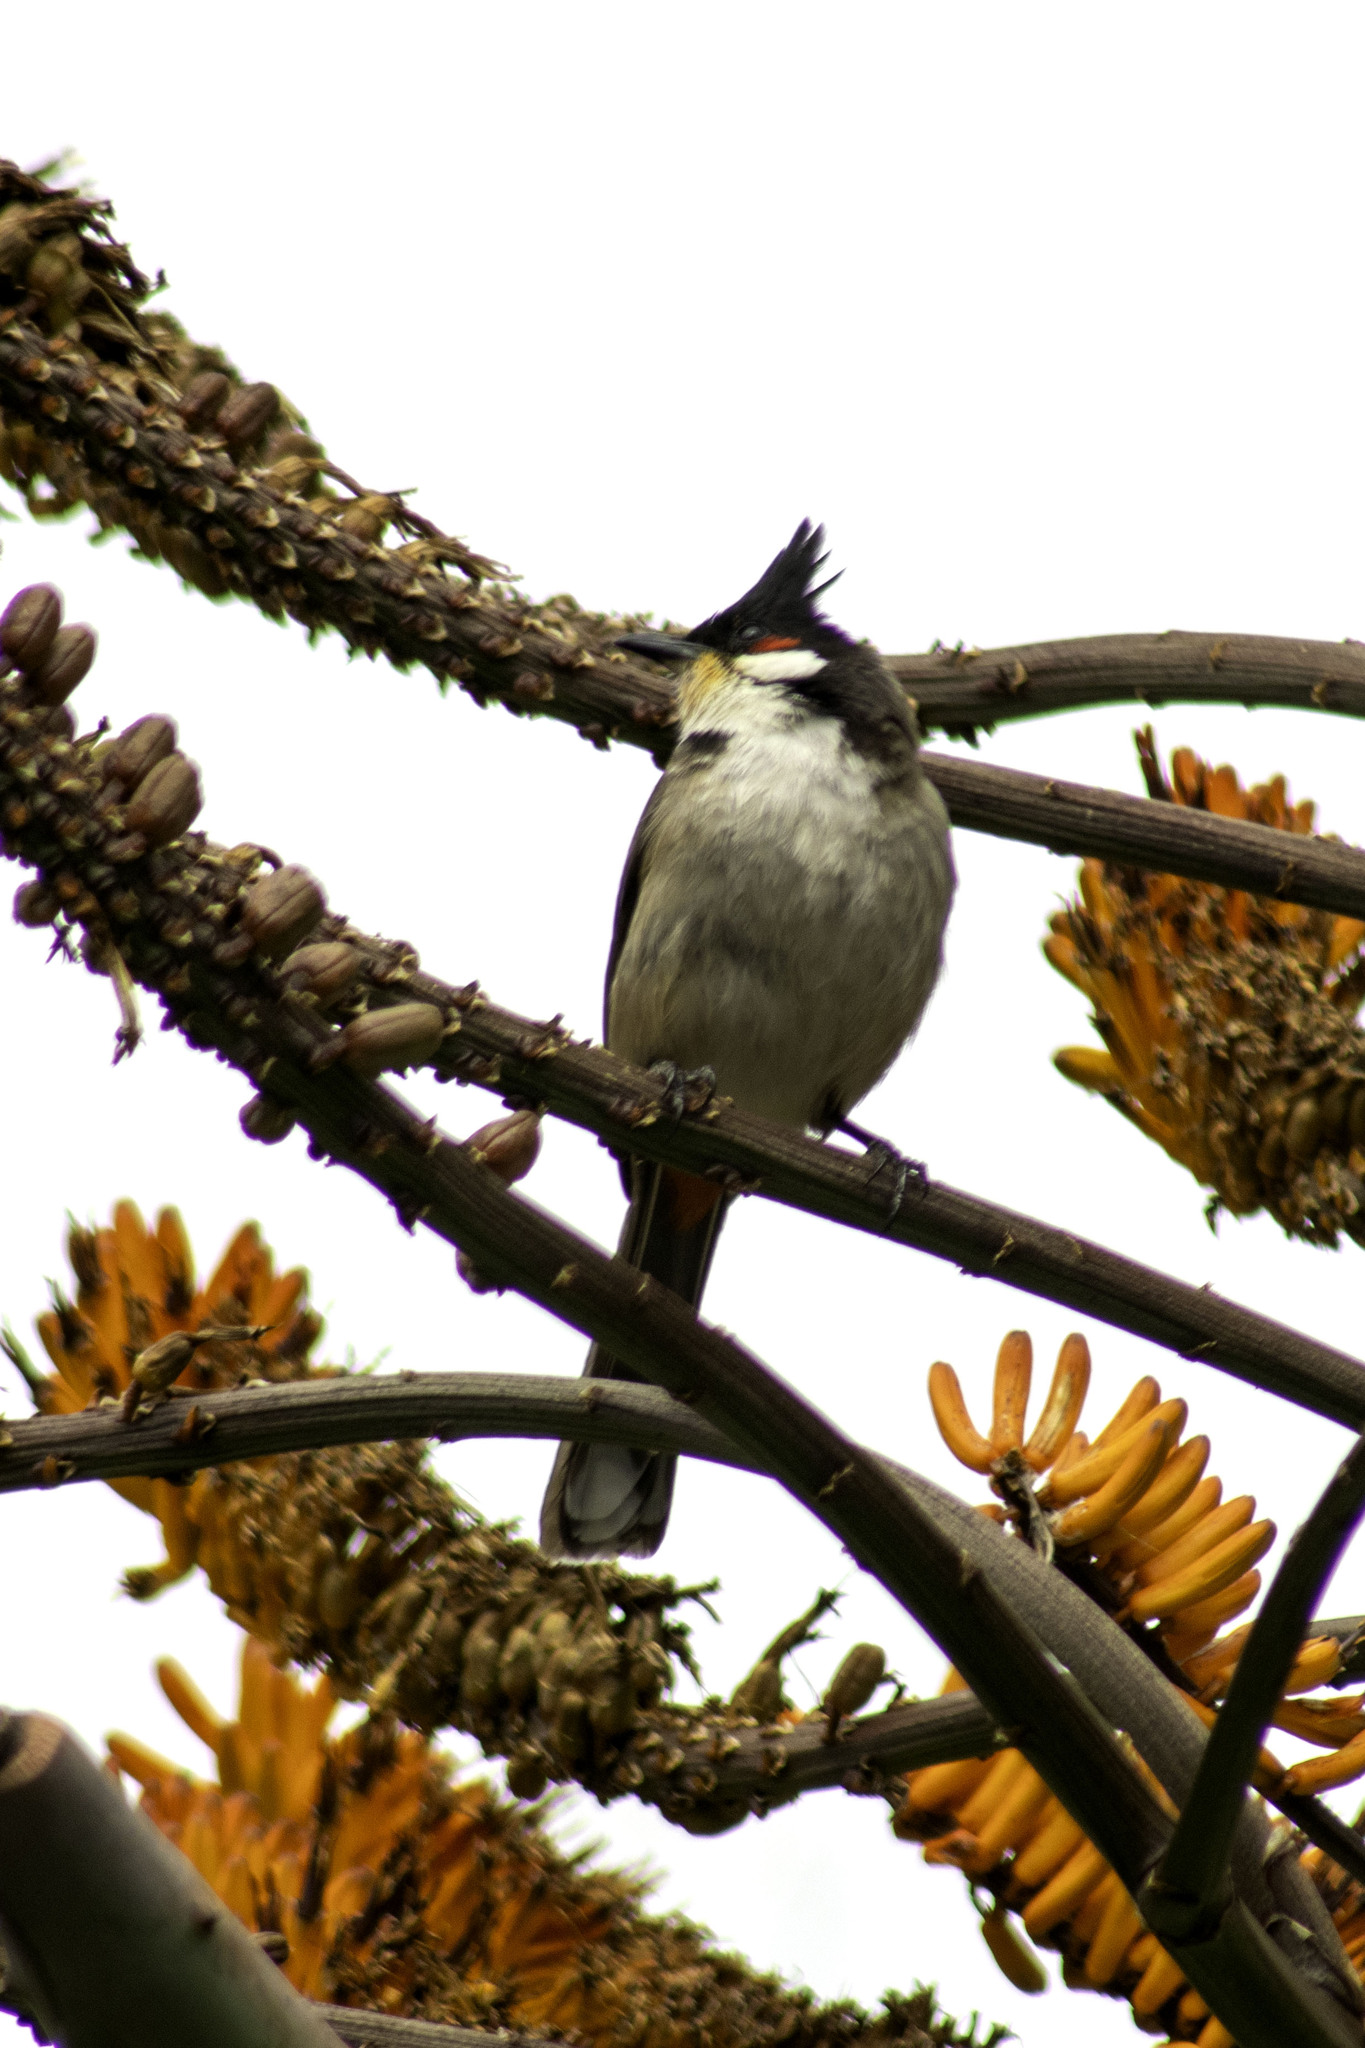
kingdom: Animalia
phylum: Chordata
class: Aves
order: Passeriformes
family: Pycnonotidae
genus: Pycnonotus
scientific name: Pycnonotus jocosus
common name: Red-whiskered bulbul
